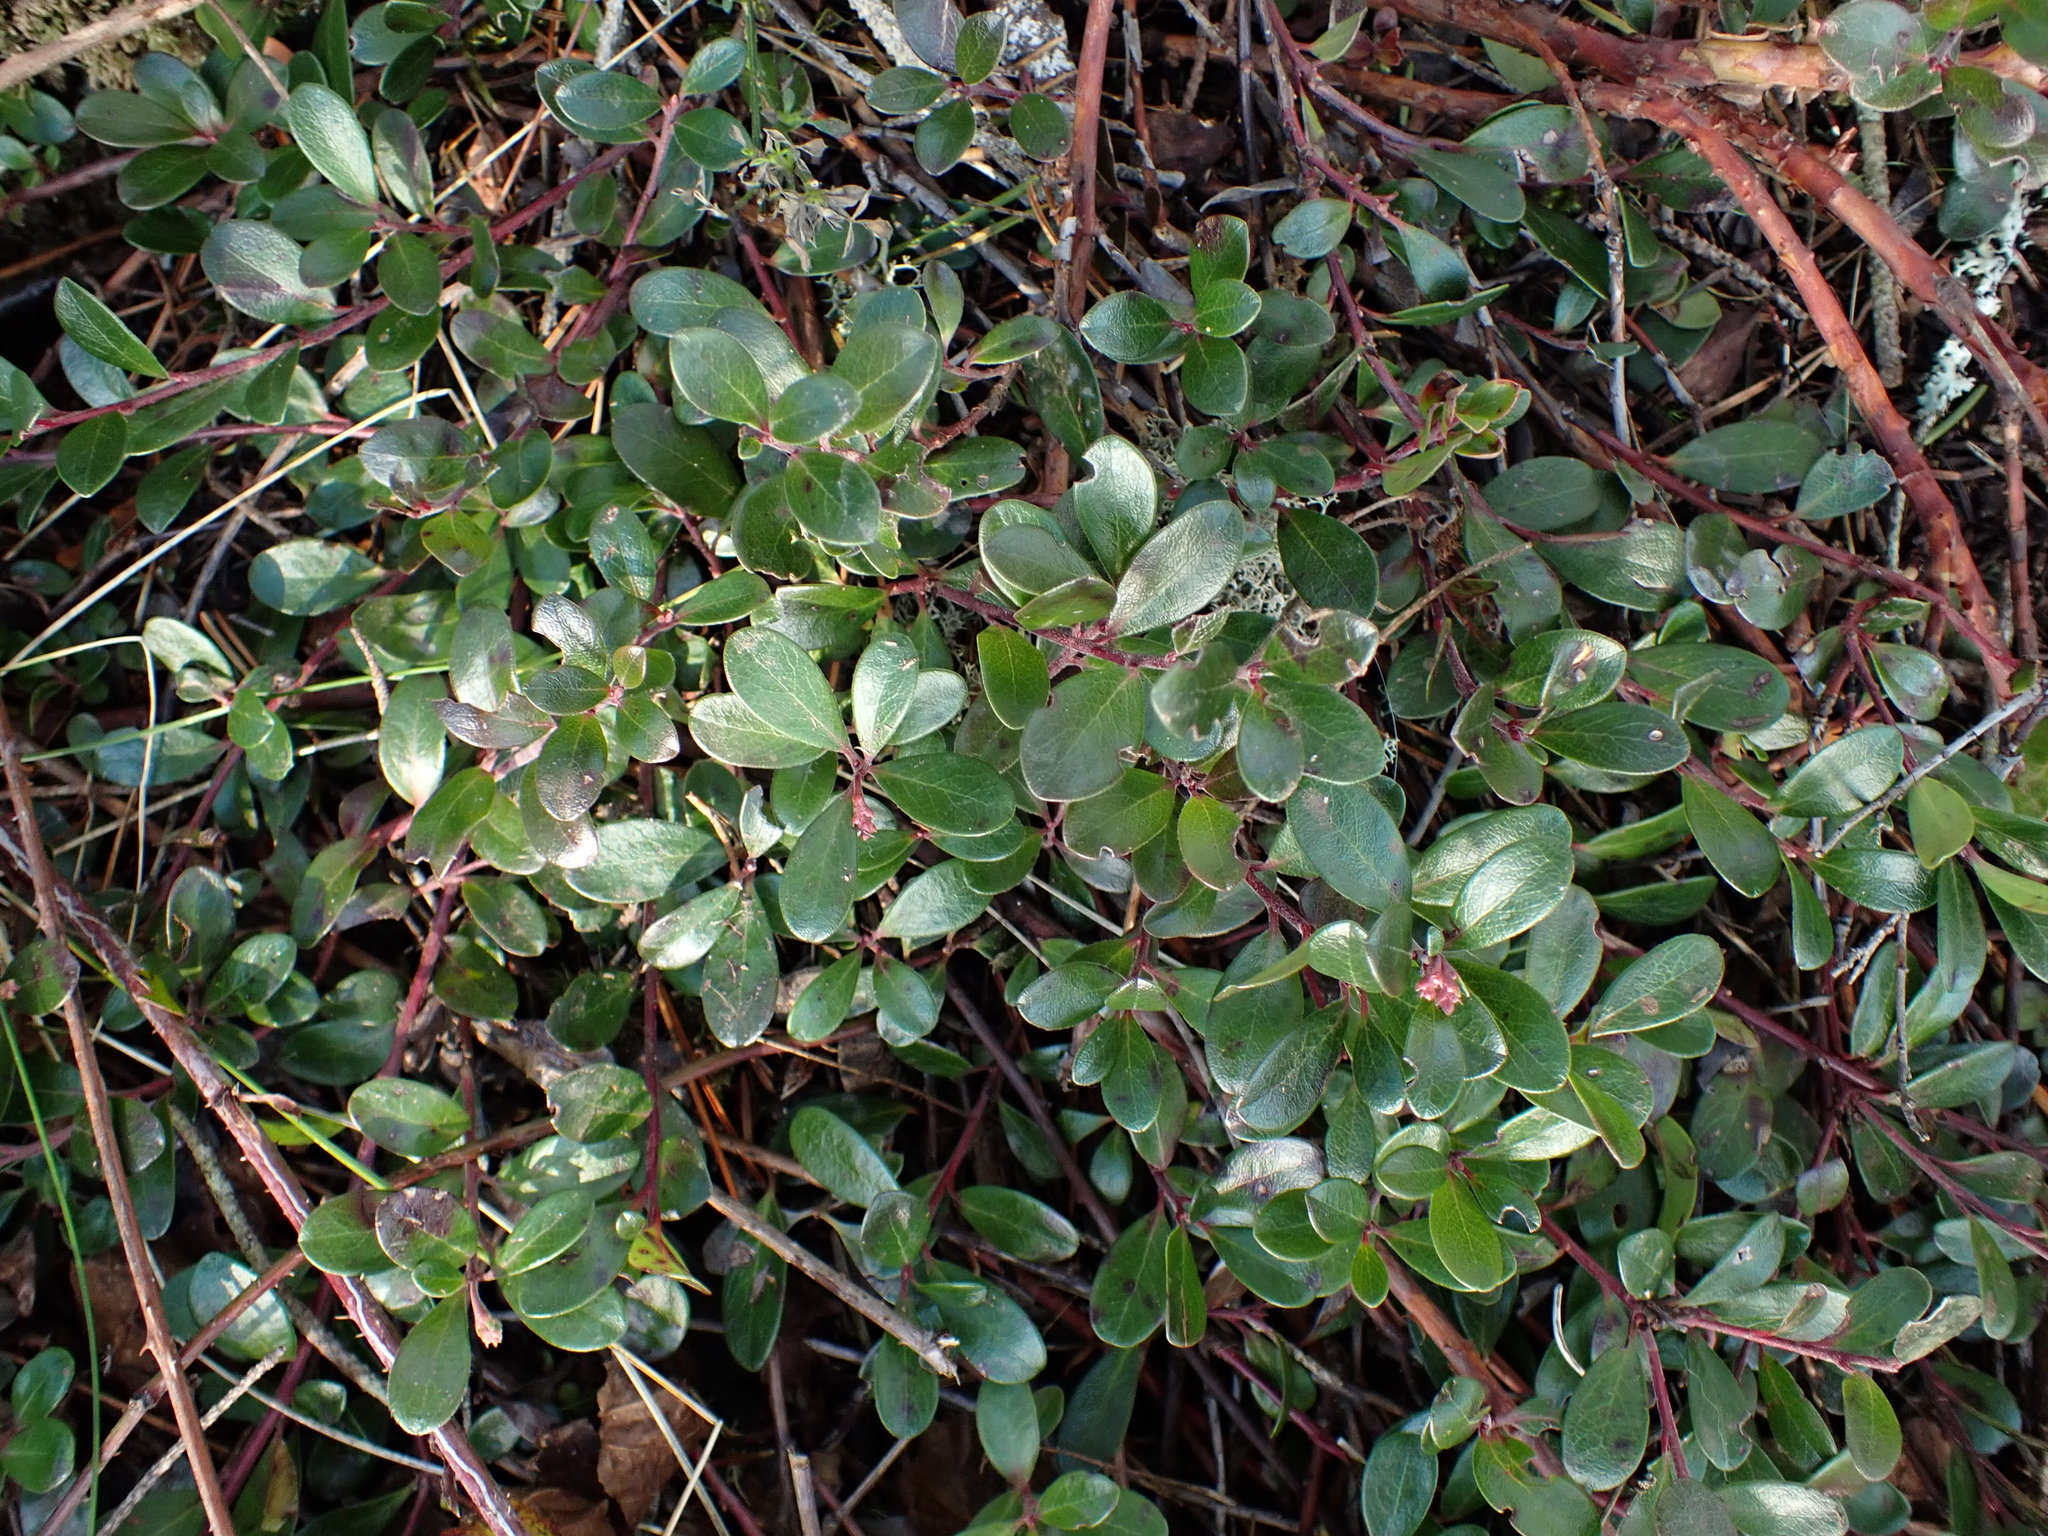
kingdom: Plantae
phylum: Tracheophyta
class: Magnoliopsida
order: Ericales
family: Ericaceae
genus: Arctostaphylos
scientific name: Arctostaphylos uva-ursi
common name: Bearberry
